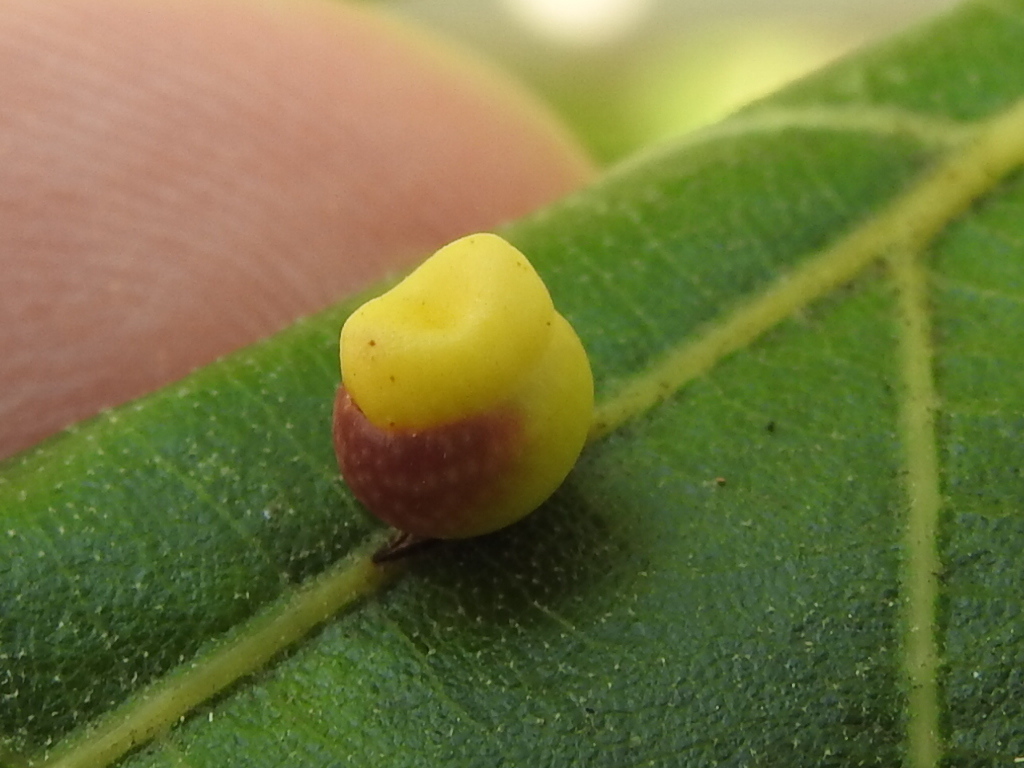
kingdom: Animalia
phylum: Arthropoda
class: Insecta
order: Hymenoptera
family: Cynipidae
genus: Kokkocynips
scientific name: Kokkocynips rileyi
